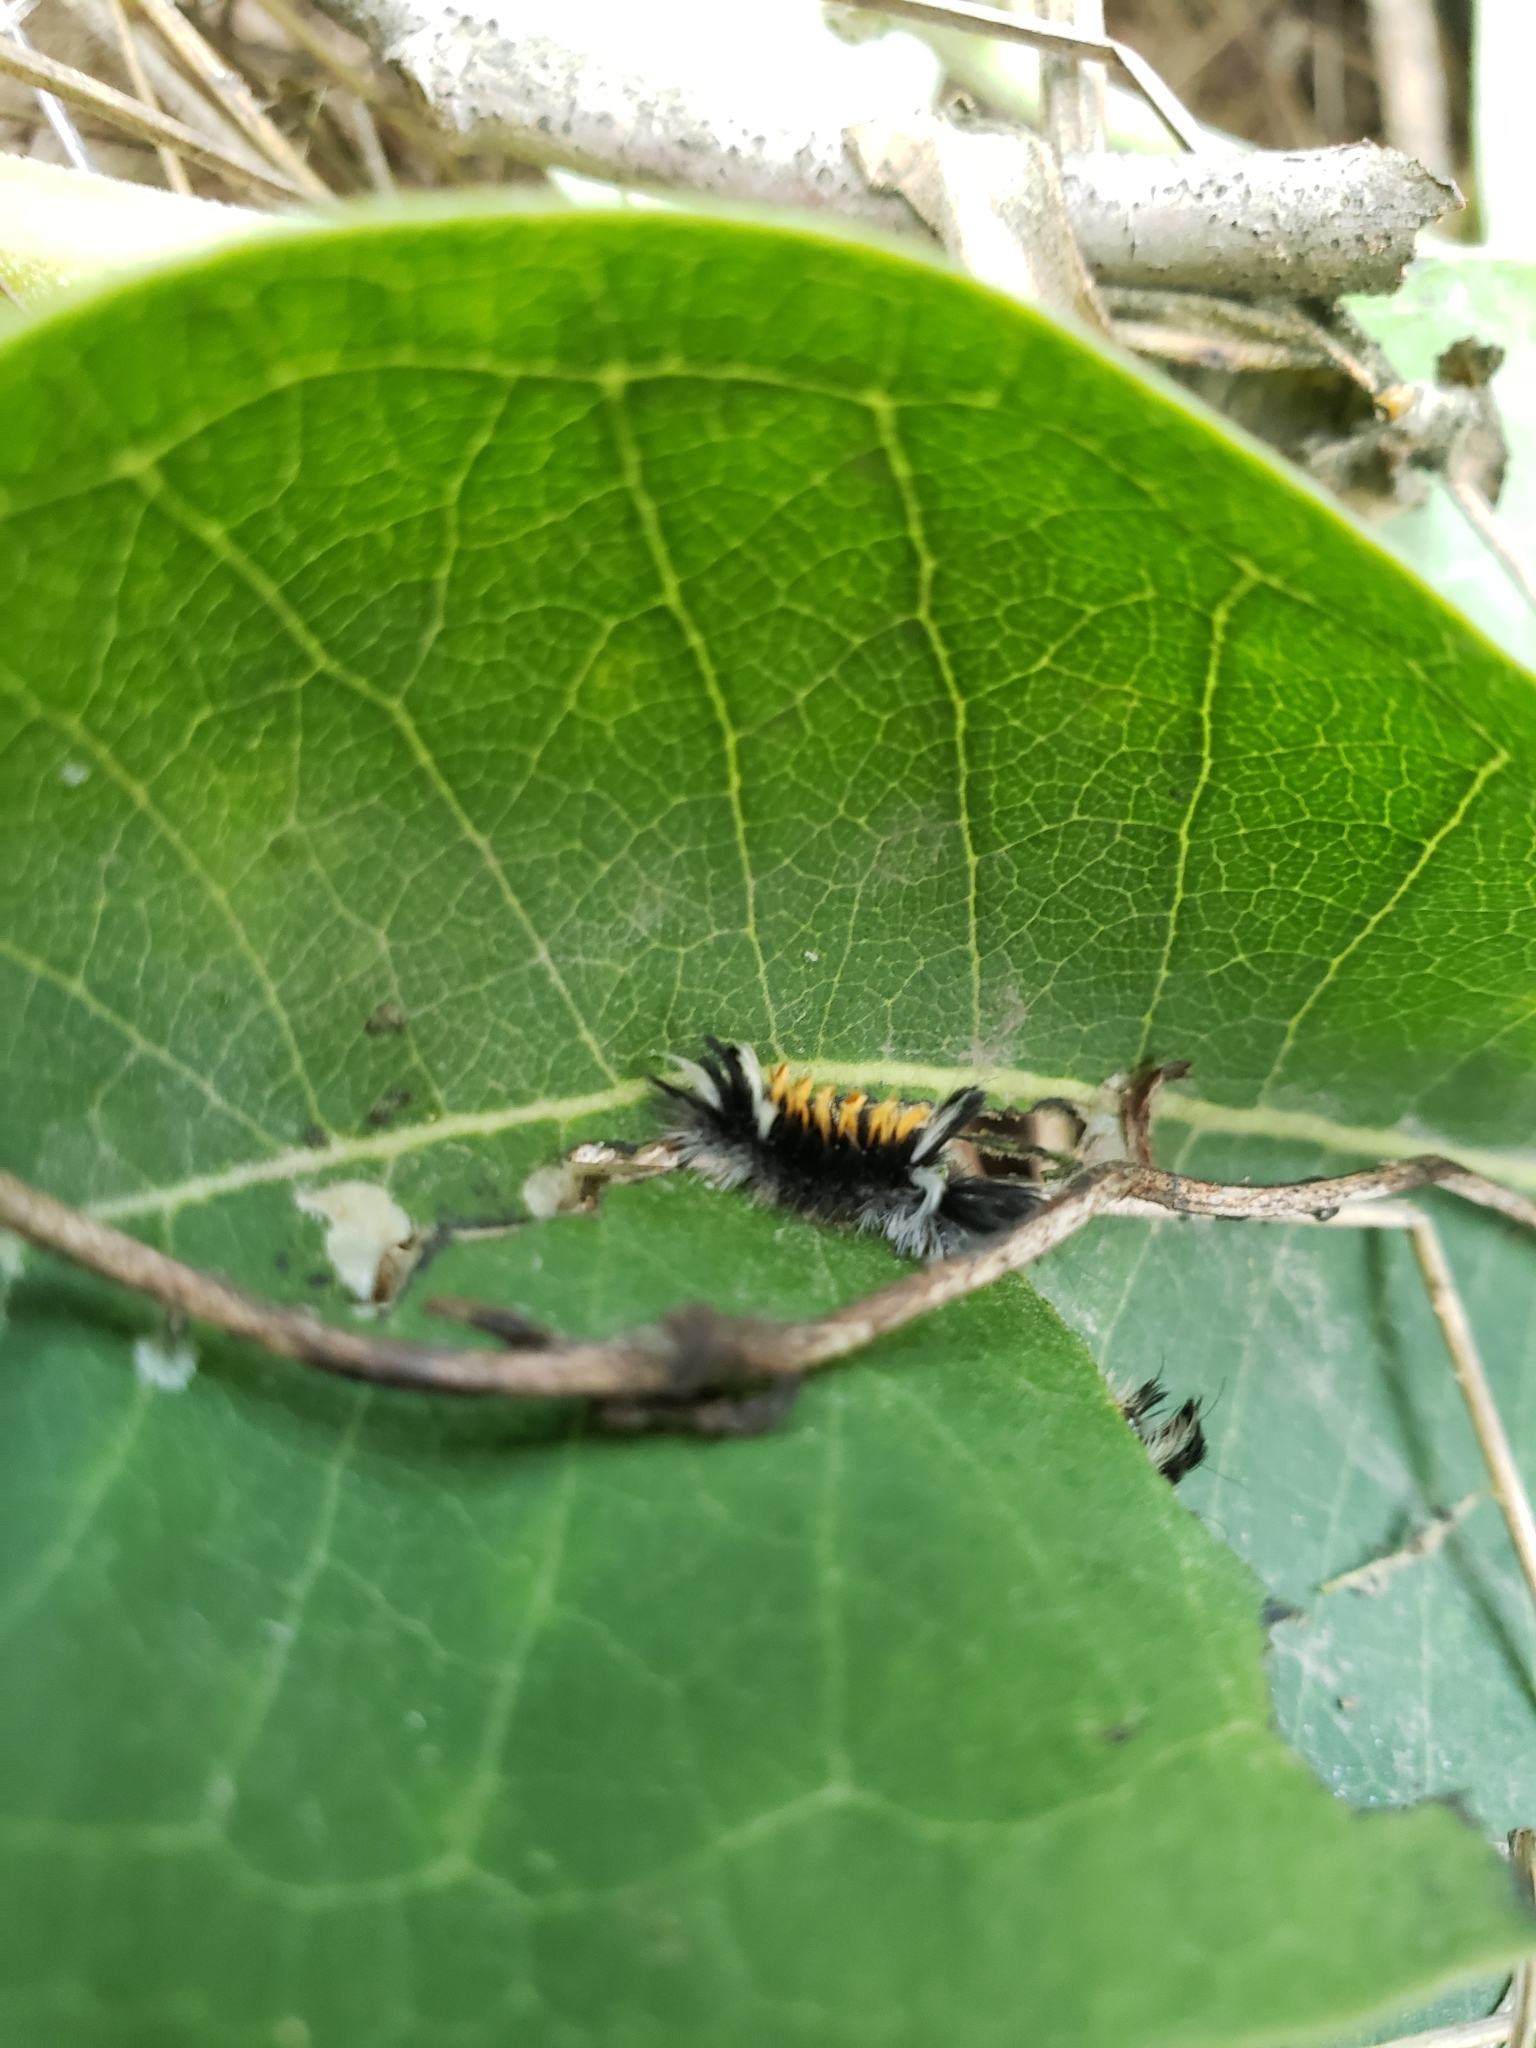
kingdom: Animalia
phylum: Arthropoda
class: Insecta
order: Lepidoptera
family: Erebidae
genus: Euchaetes
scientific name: Euchaetes egle
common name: Milkweed tussock moth
